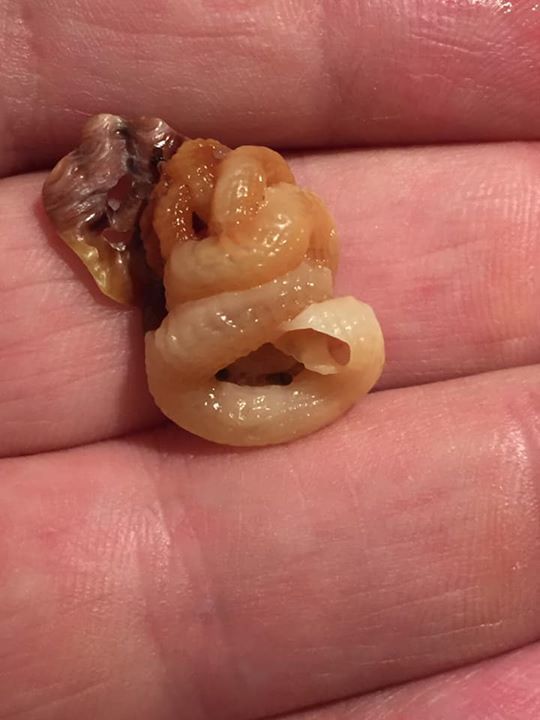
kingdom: Animalia
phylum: Mollusca
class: Gastropoda
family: Turritellidae
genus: Vermicularia
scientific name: Vermicularia lumbricalis
